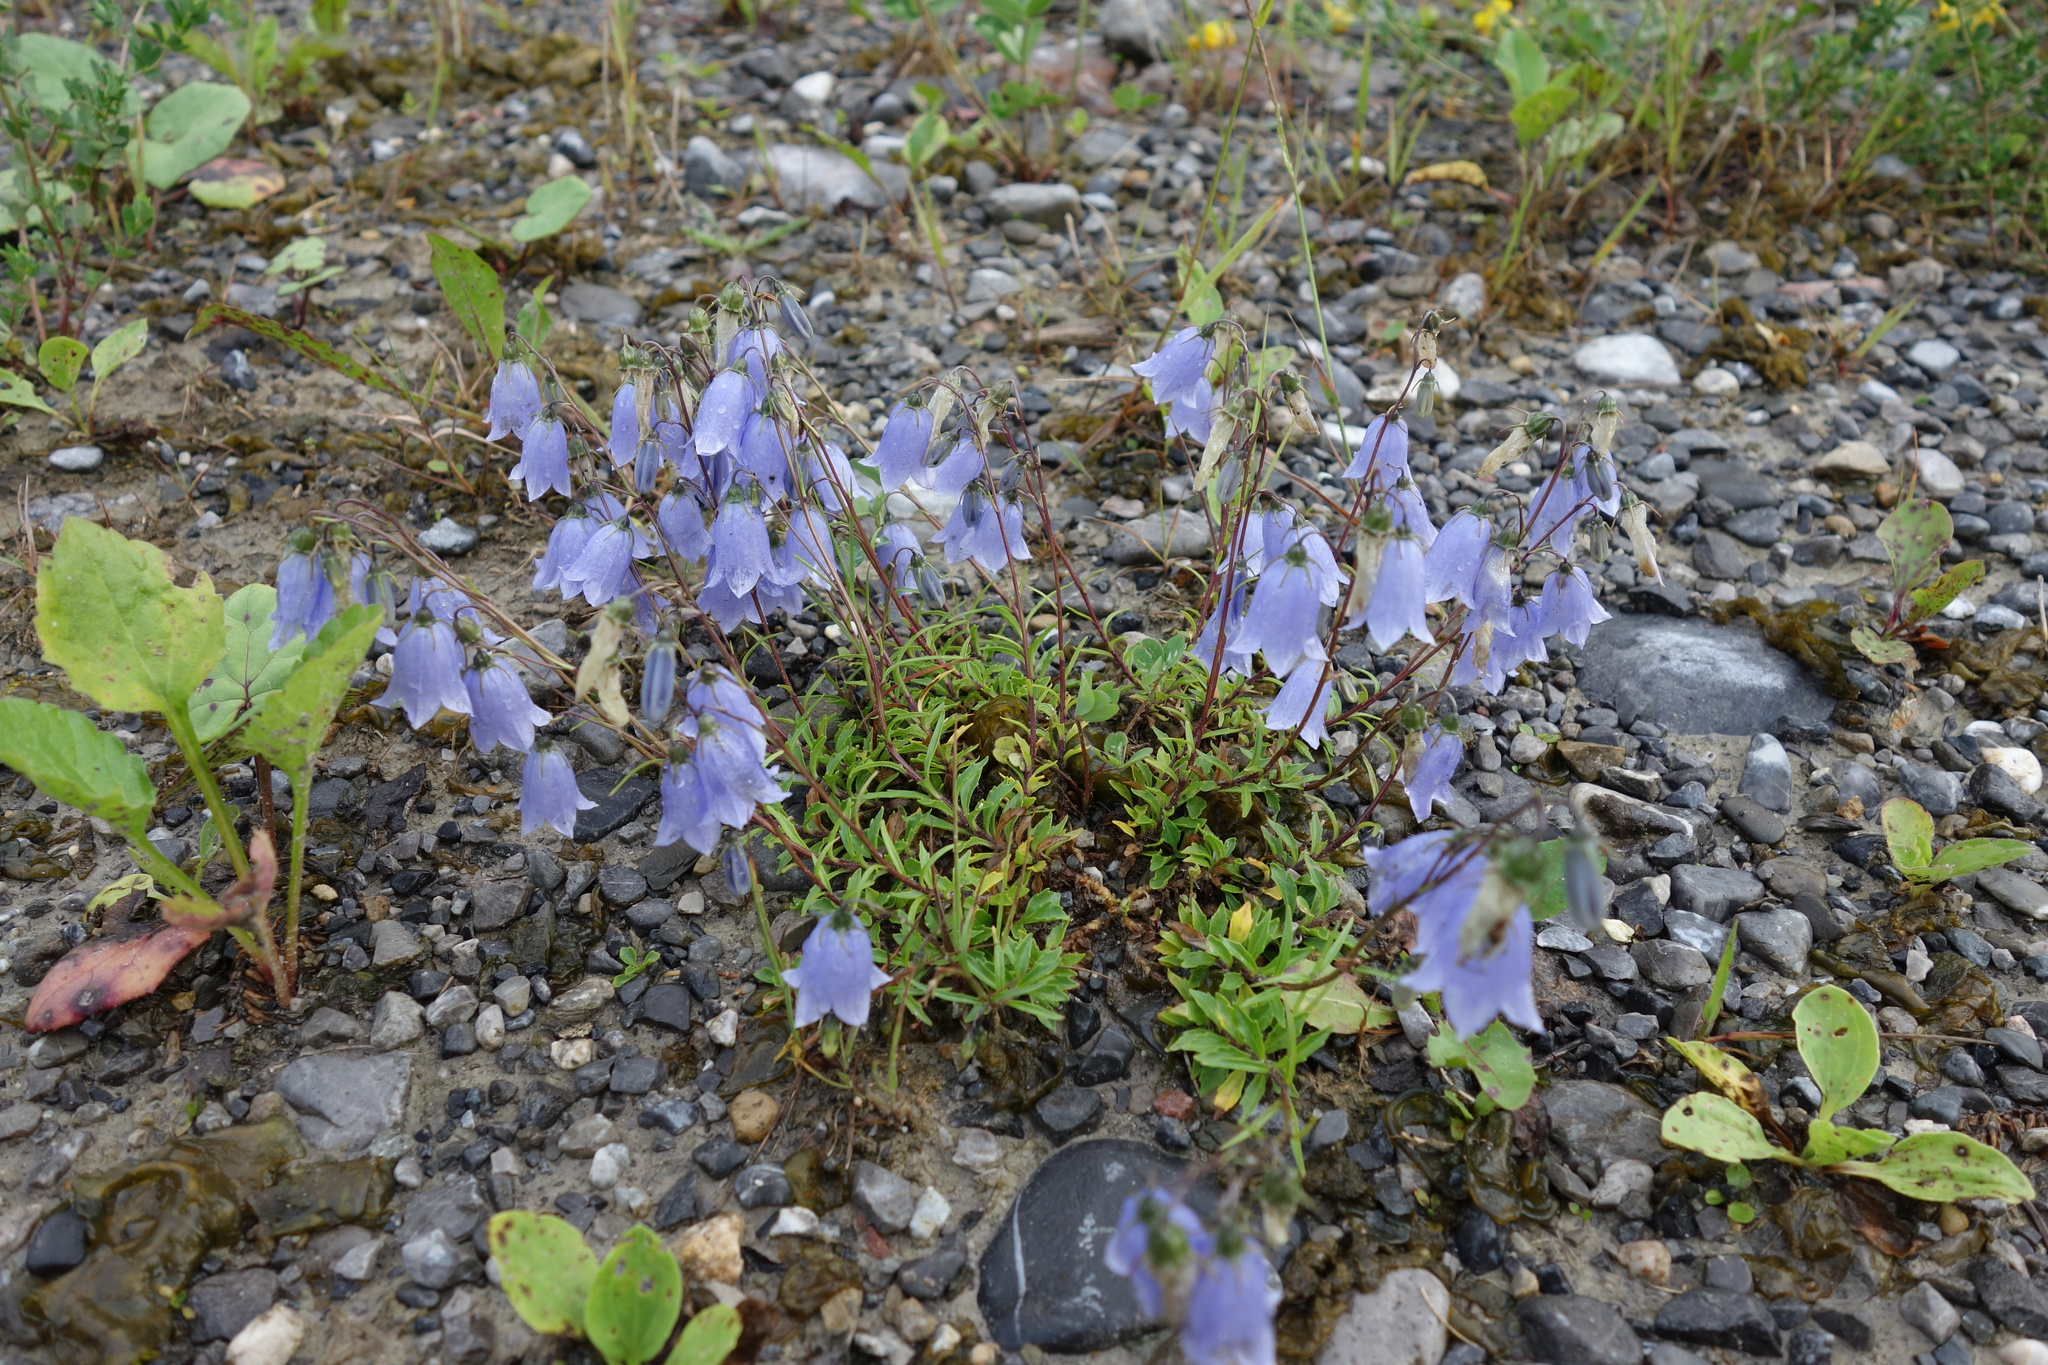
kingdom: Plantae
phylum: Tracheophyta
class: Magnoliopsida
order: Asterales
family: Campanulaceae
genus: Campanula
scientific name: Campanula cochleariifolia
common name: Fairies'-thimbles
